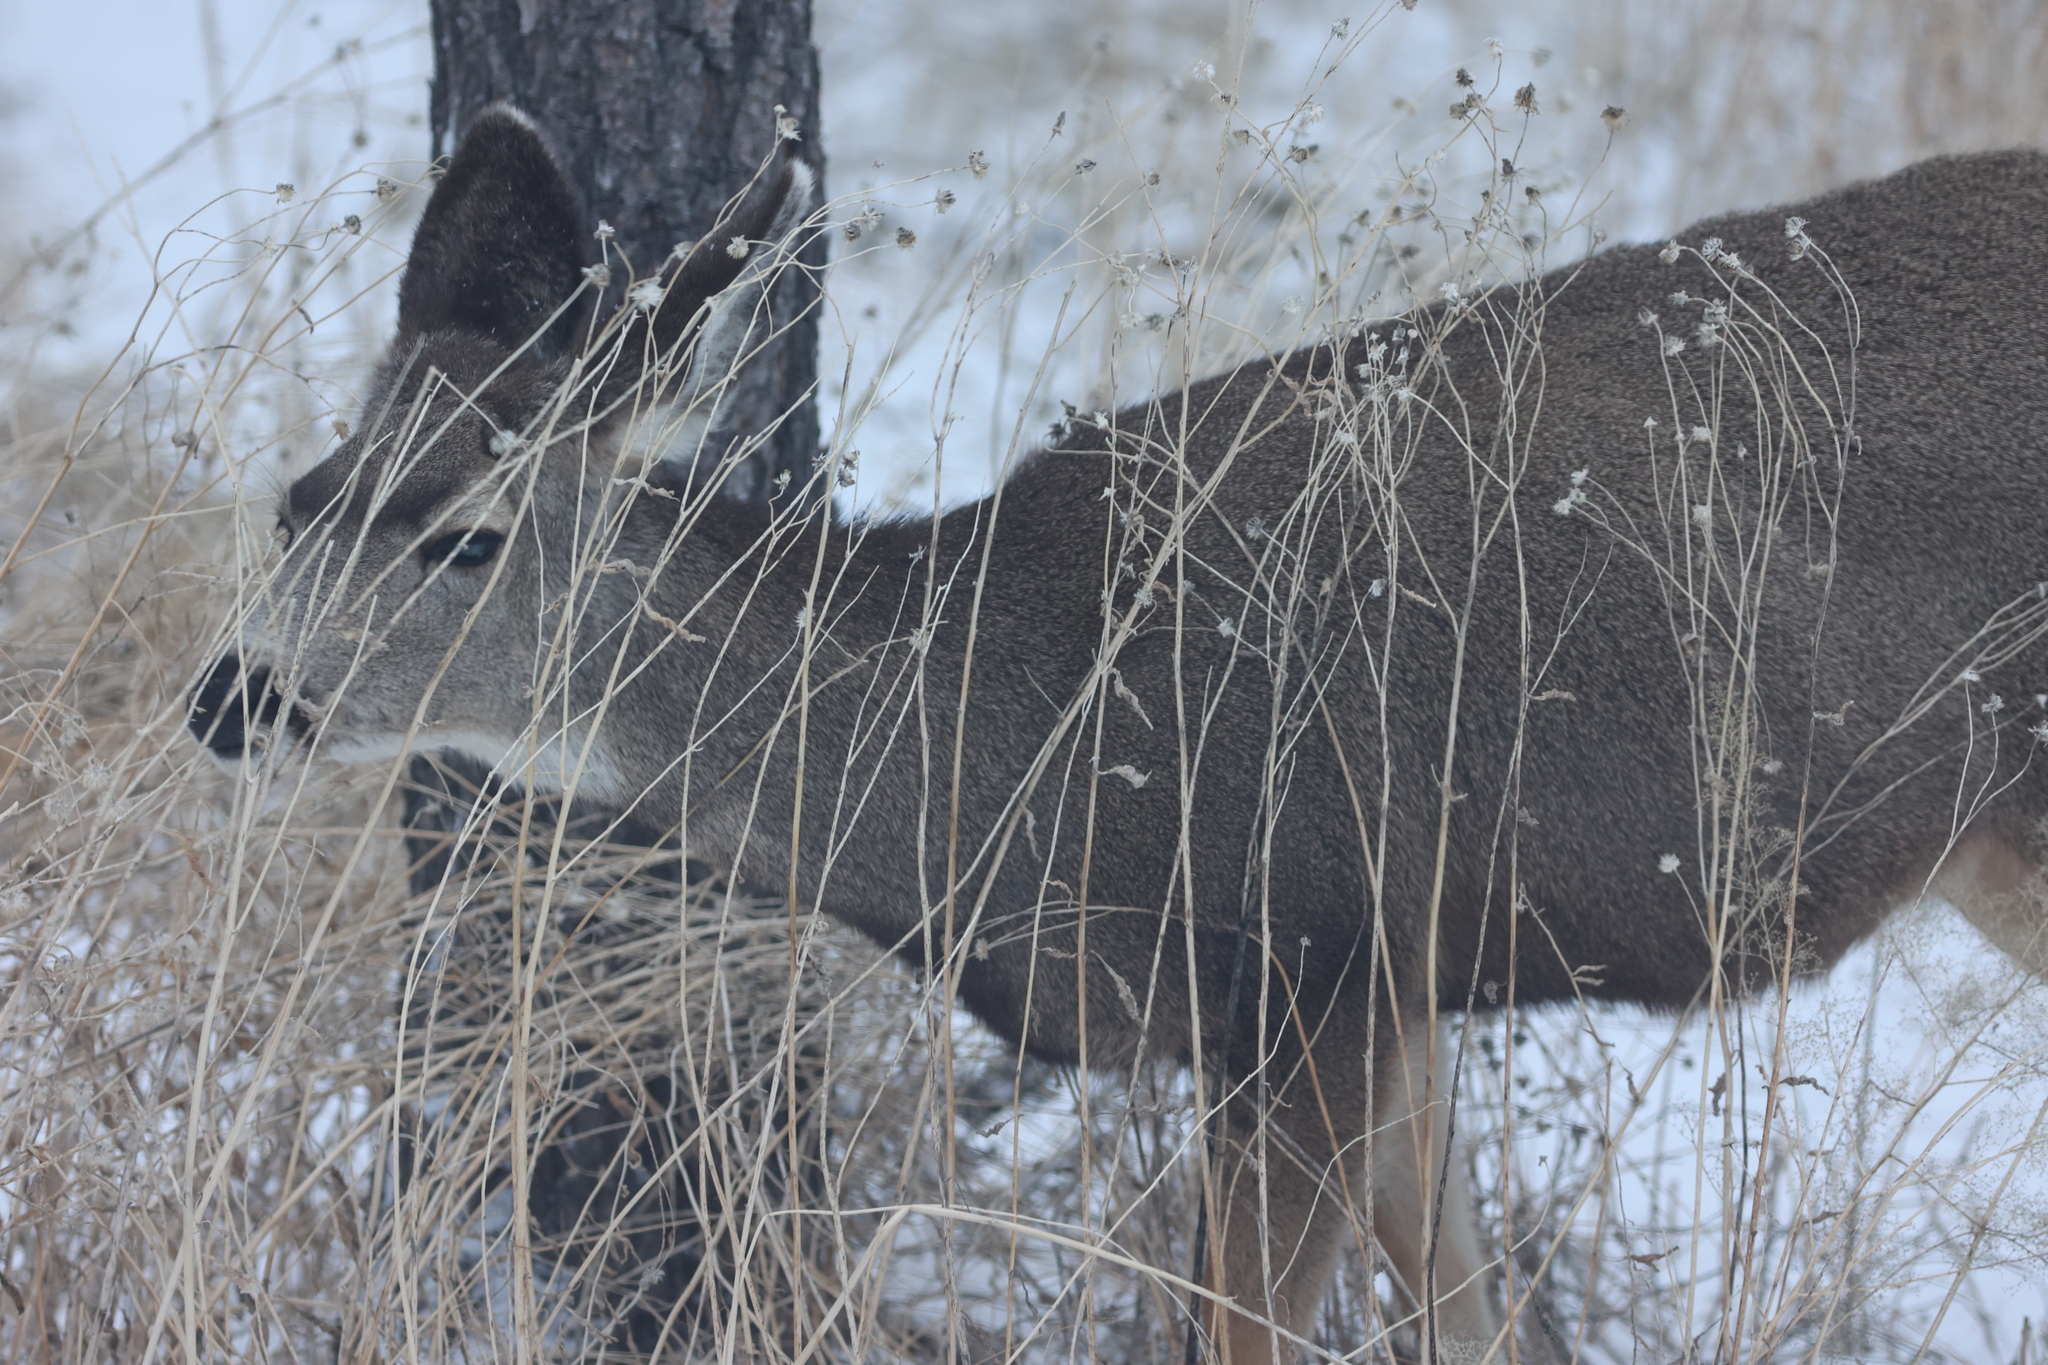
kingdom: Animalia
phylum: Chordata
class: Mammalia
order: Artiodactyla
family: Cervidae
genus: Odocoileus
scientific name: Odocoileus hemionus
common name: Mule deer
